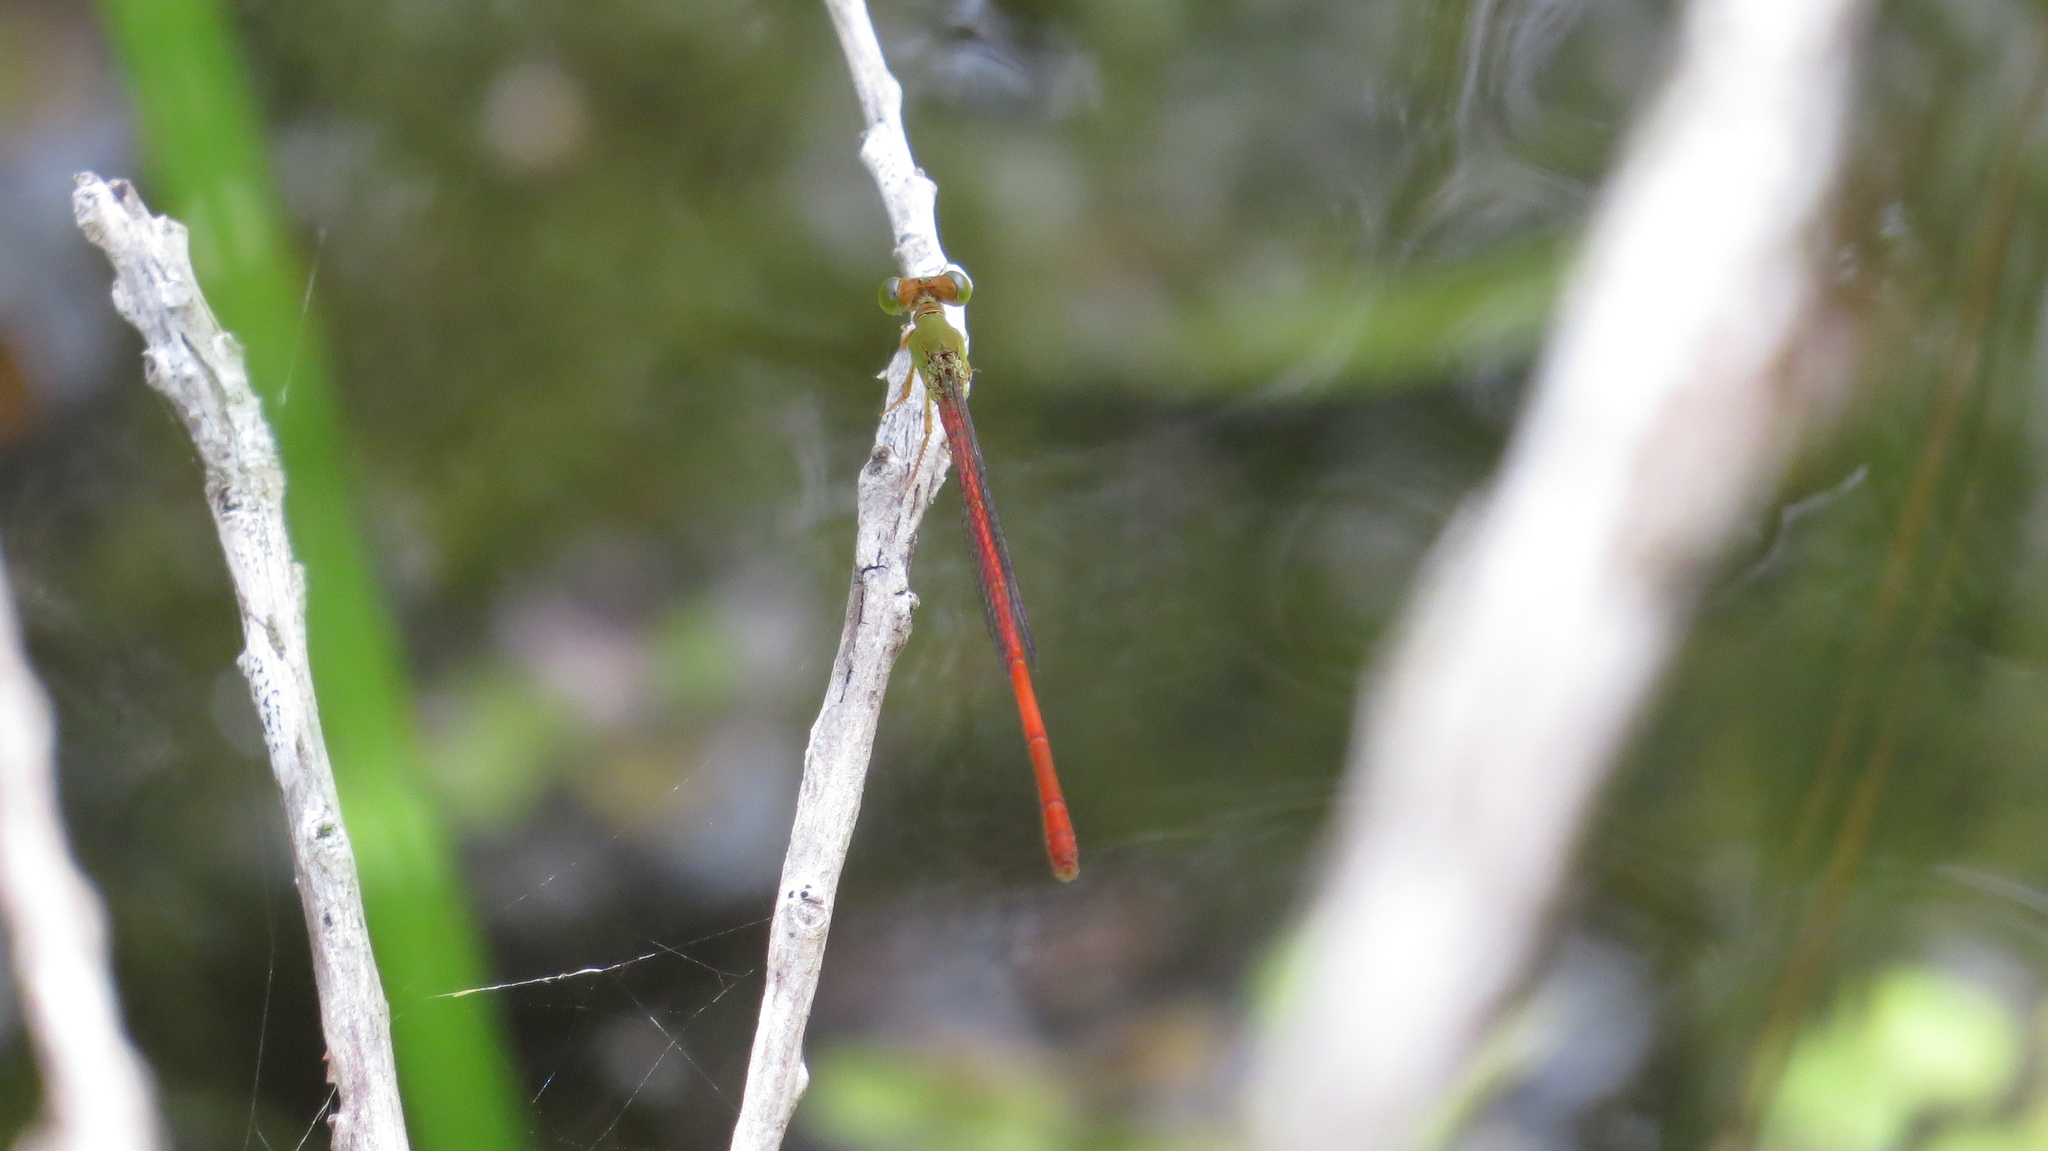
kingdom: Animalia
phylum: Arthropoda
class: Insecta
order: Odonata
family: Coenagrionidae
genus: Ceriagrion
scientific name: Ceriagrion aeruginosum
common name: Redtail
